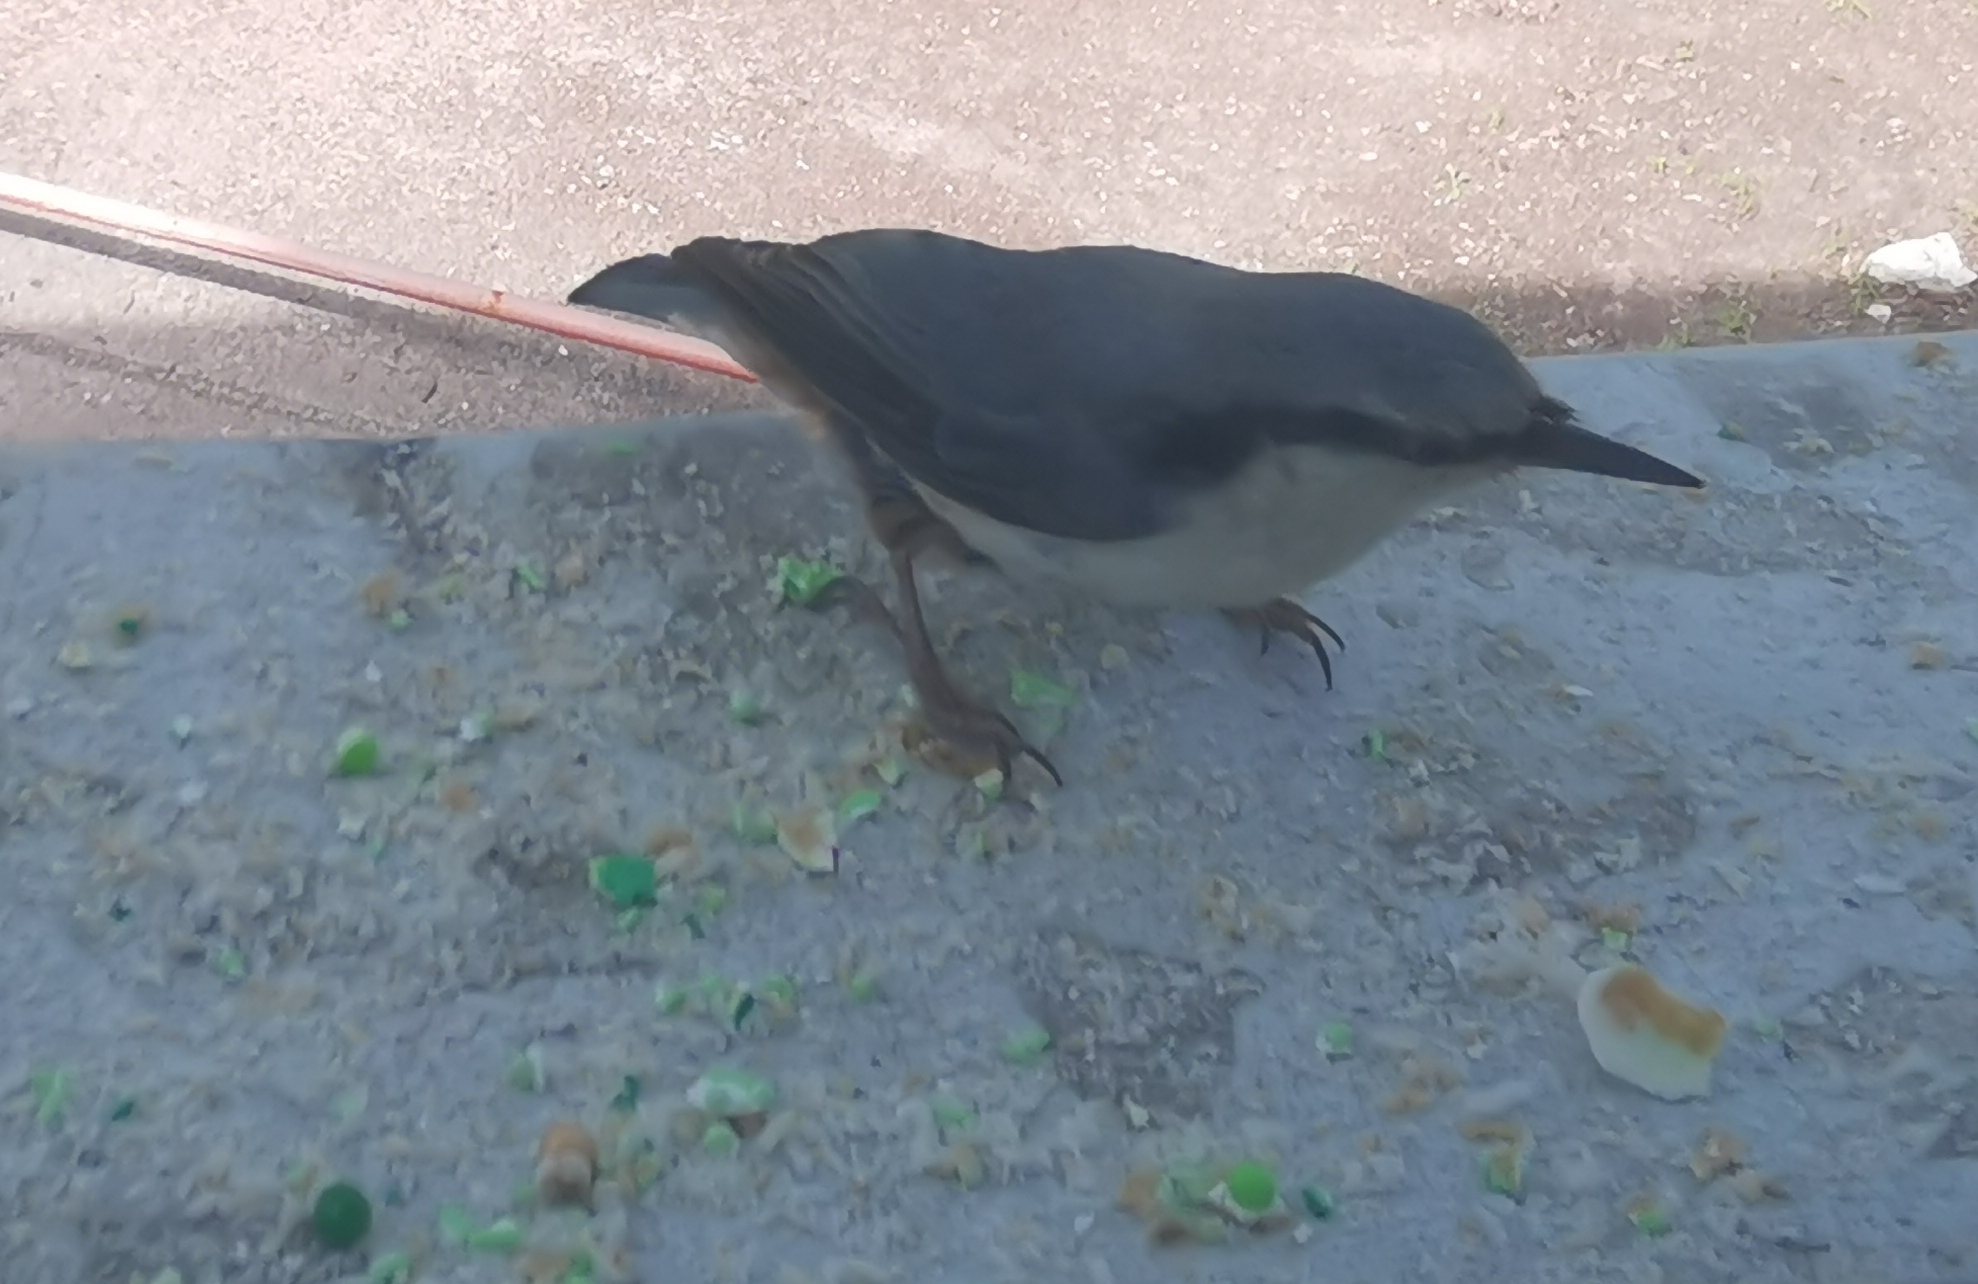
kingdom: Animalia
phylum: Chordata
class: Aves
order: Passeriformes
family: Sittidae
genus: Sitta
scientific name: Sitta europaea
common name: Eurasian nuthatch
